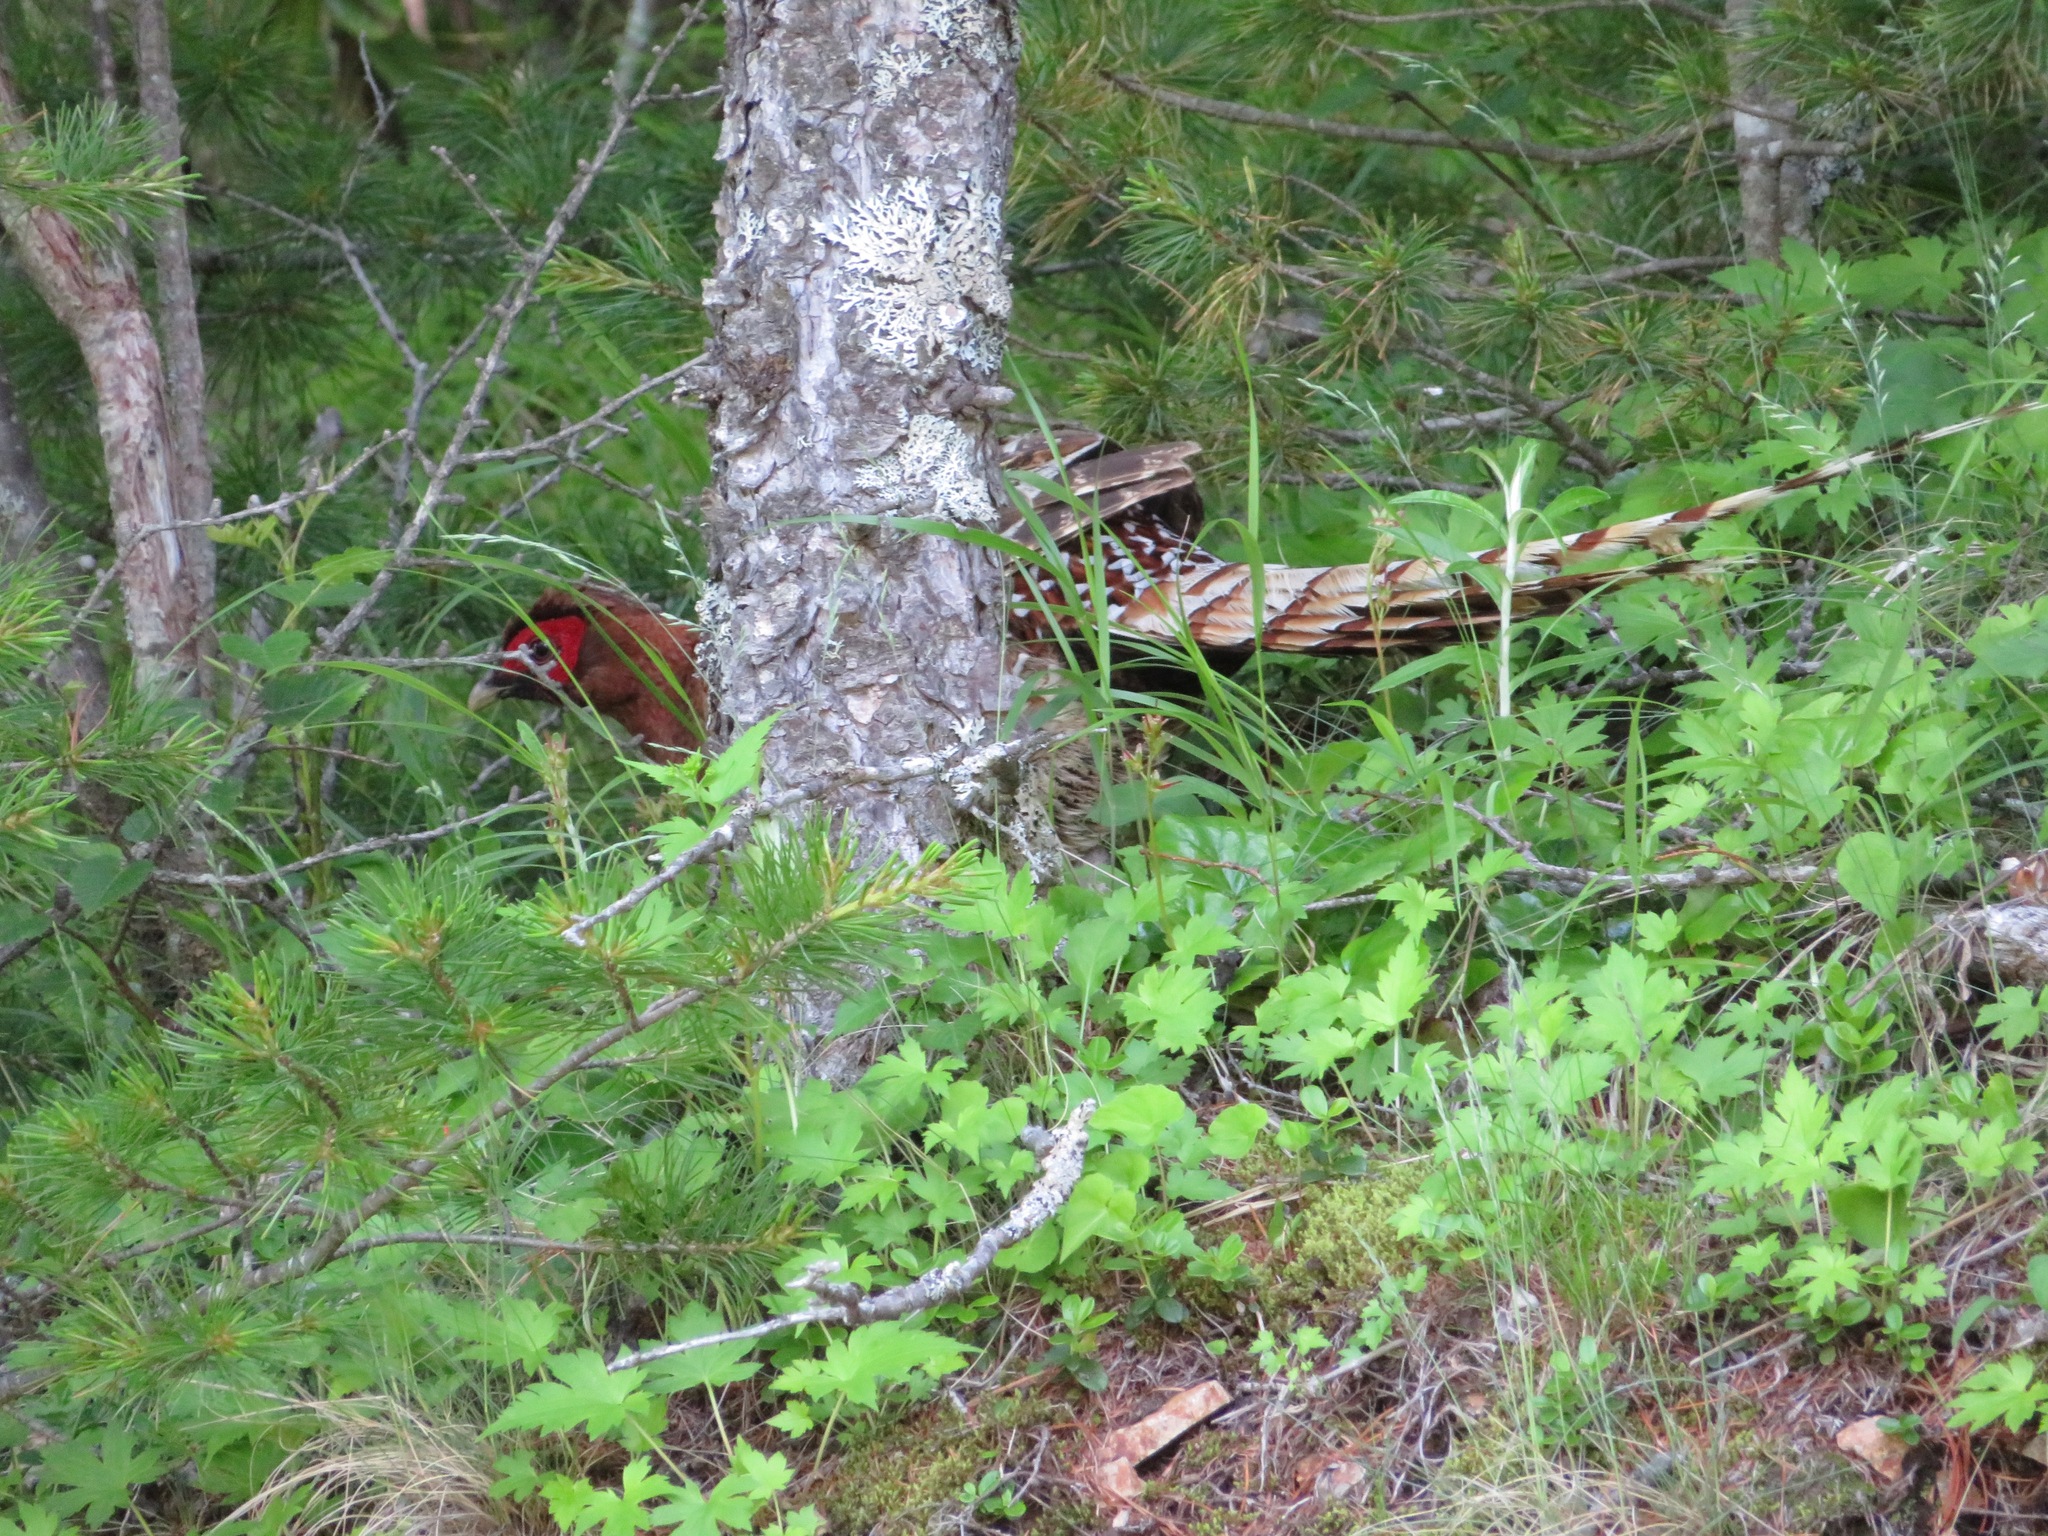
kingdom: Animalia
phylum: Chordata
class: Aves
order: Galliformes
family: Phasianidae
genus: Syrmaticus
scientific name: Syrmaticus soemmerringii
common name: Copper pheasant
